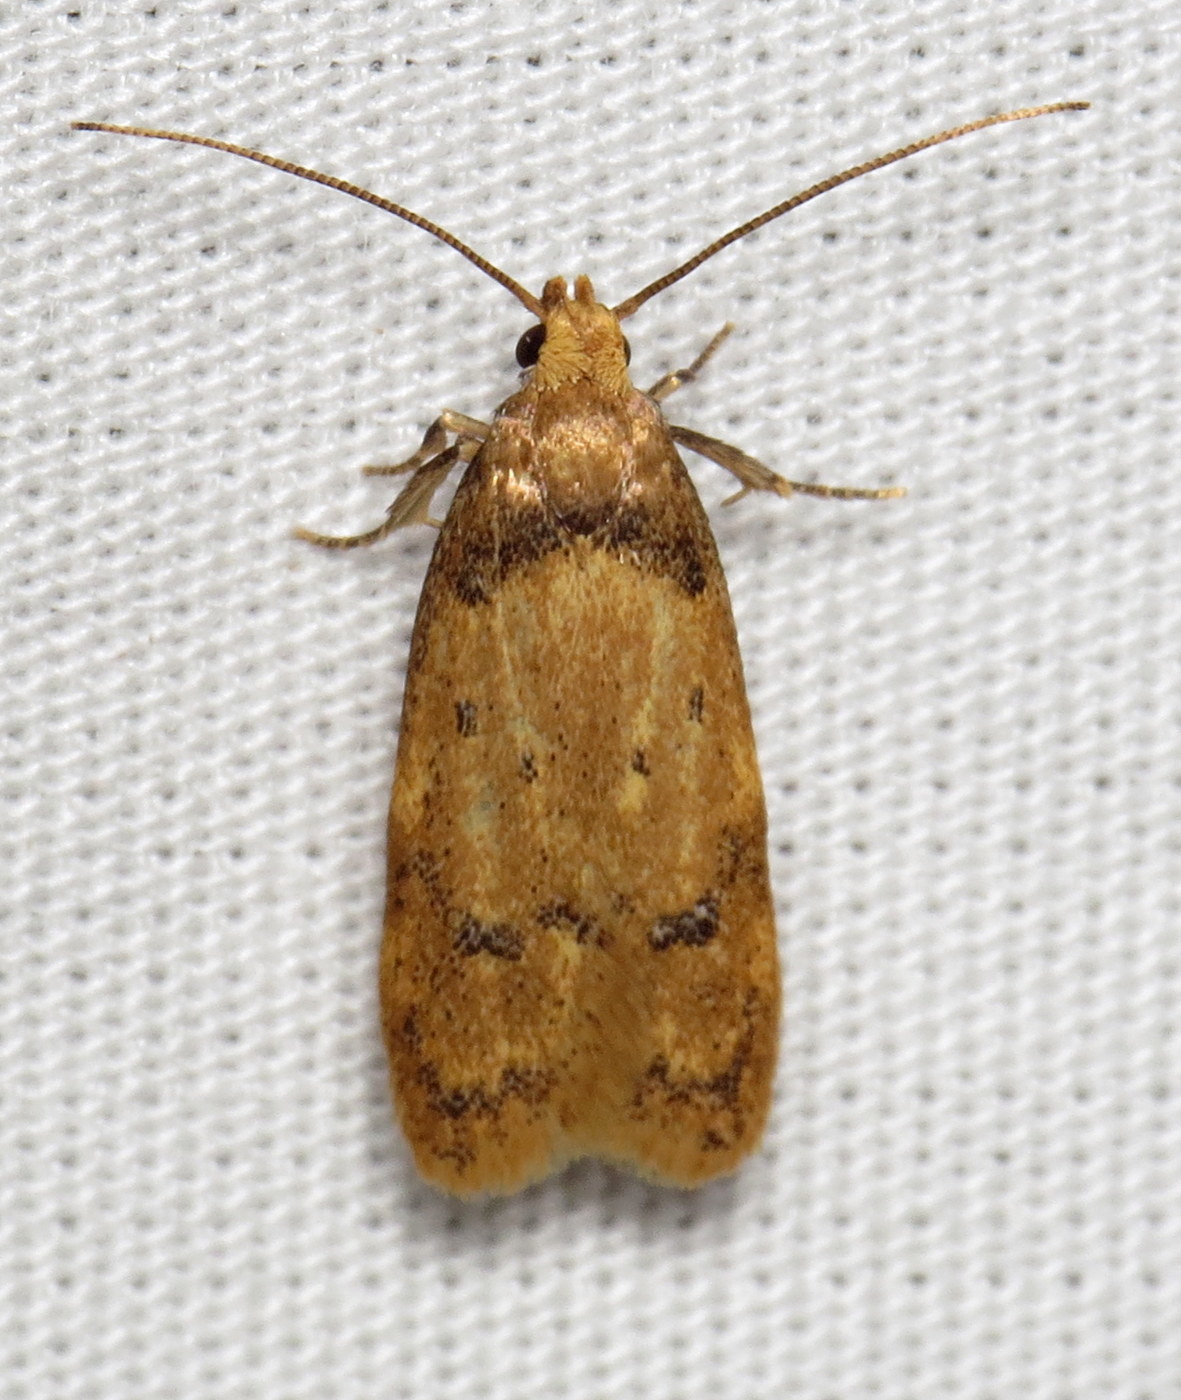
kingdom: Animalia
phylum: Arthropoda
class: Insecta
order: Lepidoptera
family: Autostichidae
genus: Gerdana
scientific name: Gerdana caritella
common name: Gerdana moth
